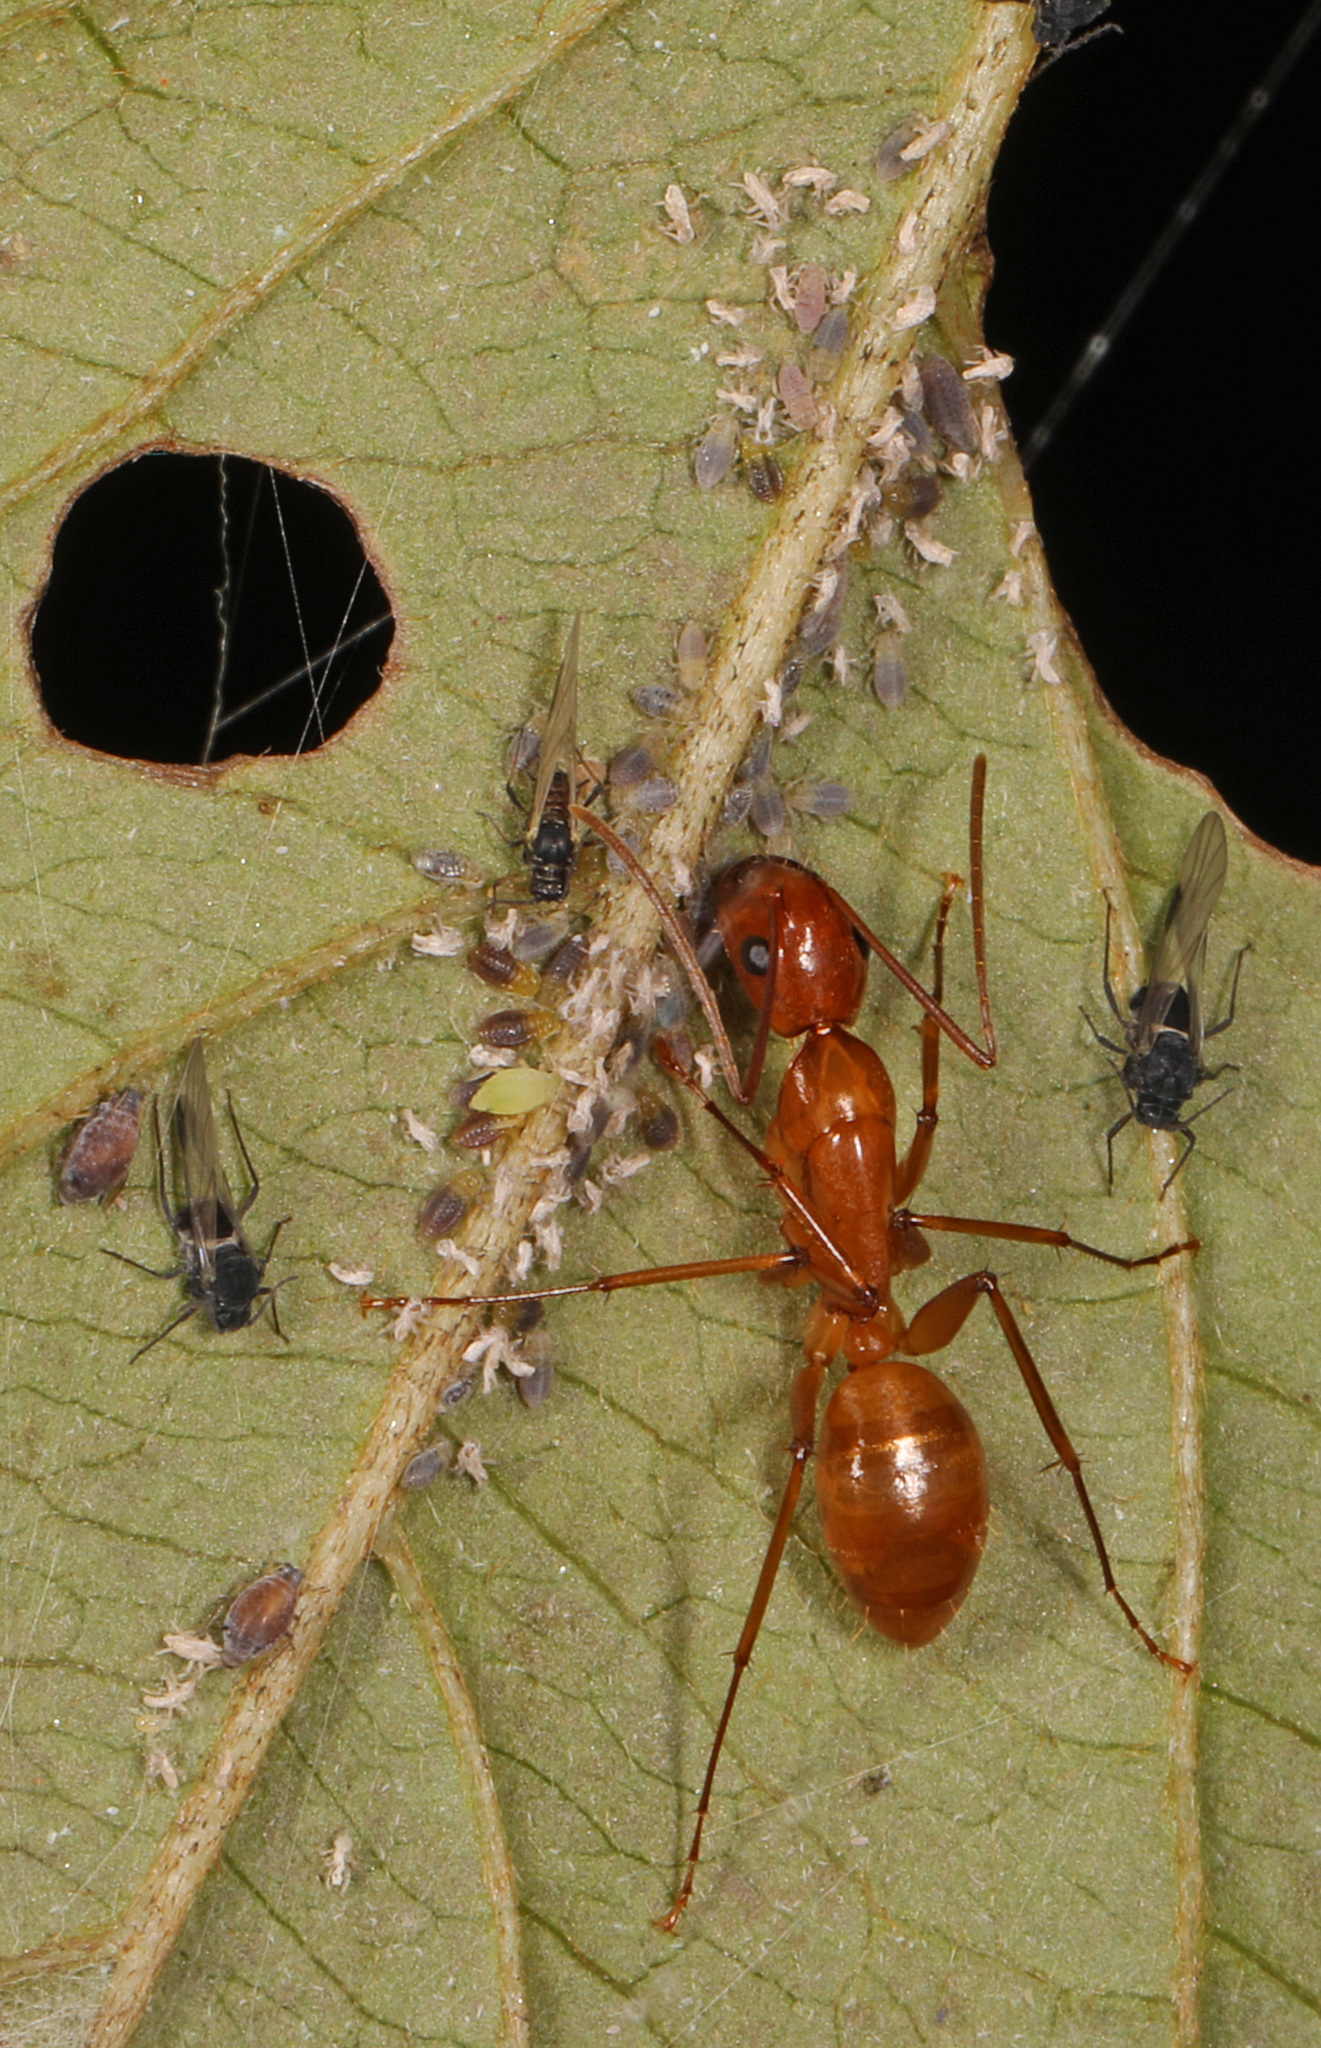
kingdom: Animalia
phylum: Arthropoda
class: Insecta
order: Hymenoptera
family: Formicidae
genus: Camponotus
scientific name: Camponotus castaneus
